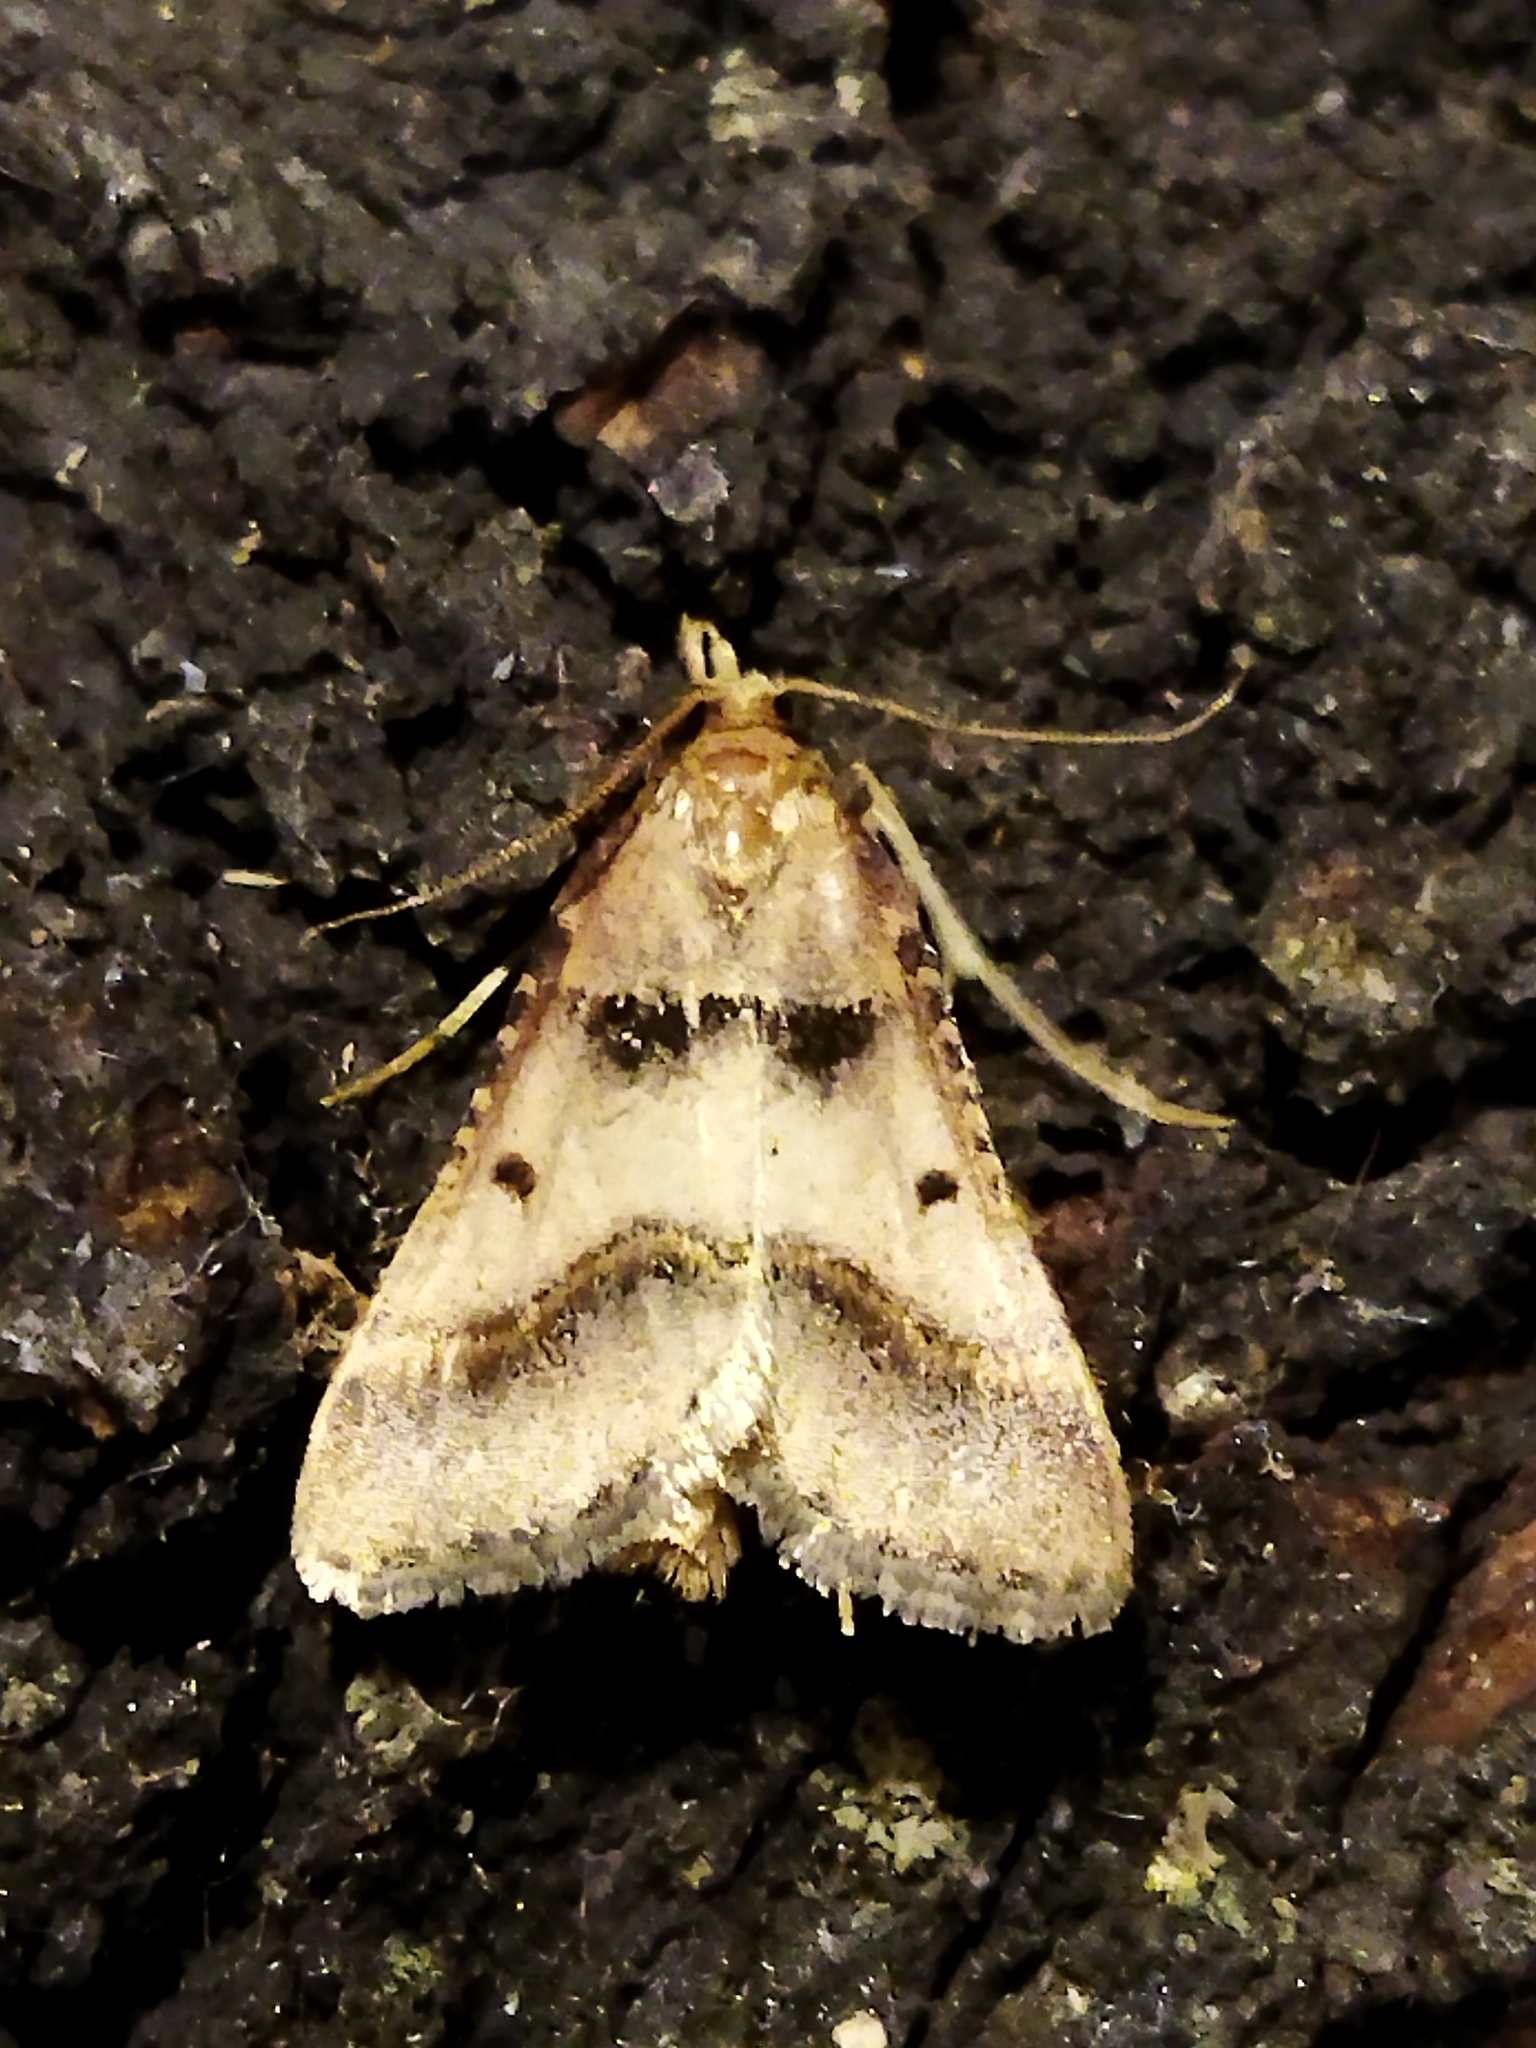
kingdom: Animalia
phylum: Arthropoda
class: Insecta
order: Lepidoptera
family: Pyralidae
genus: Stemmatophora
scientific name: Stemmatophora brunnealis
